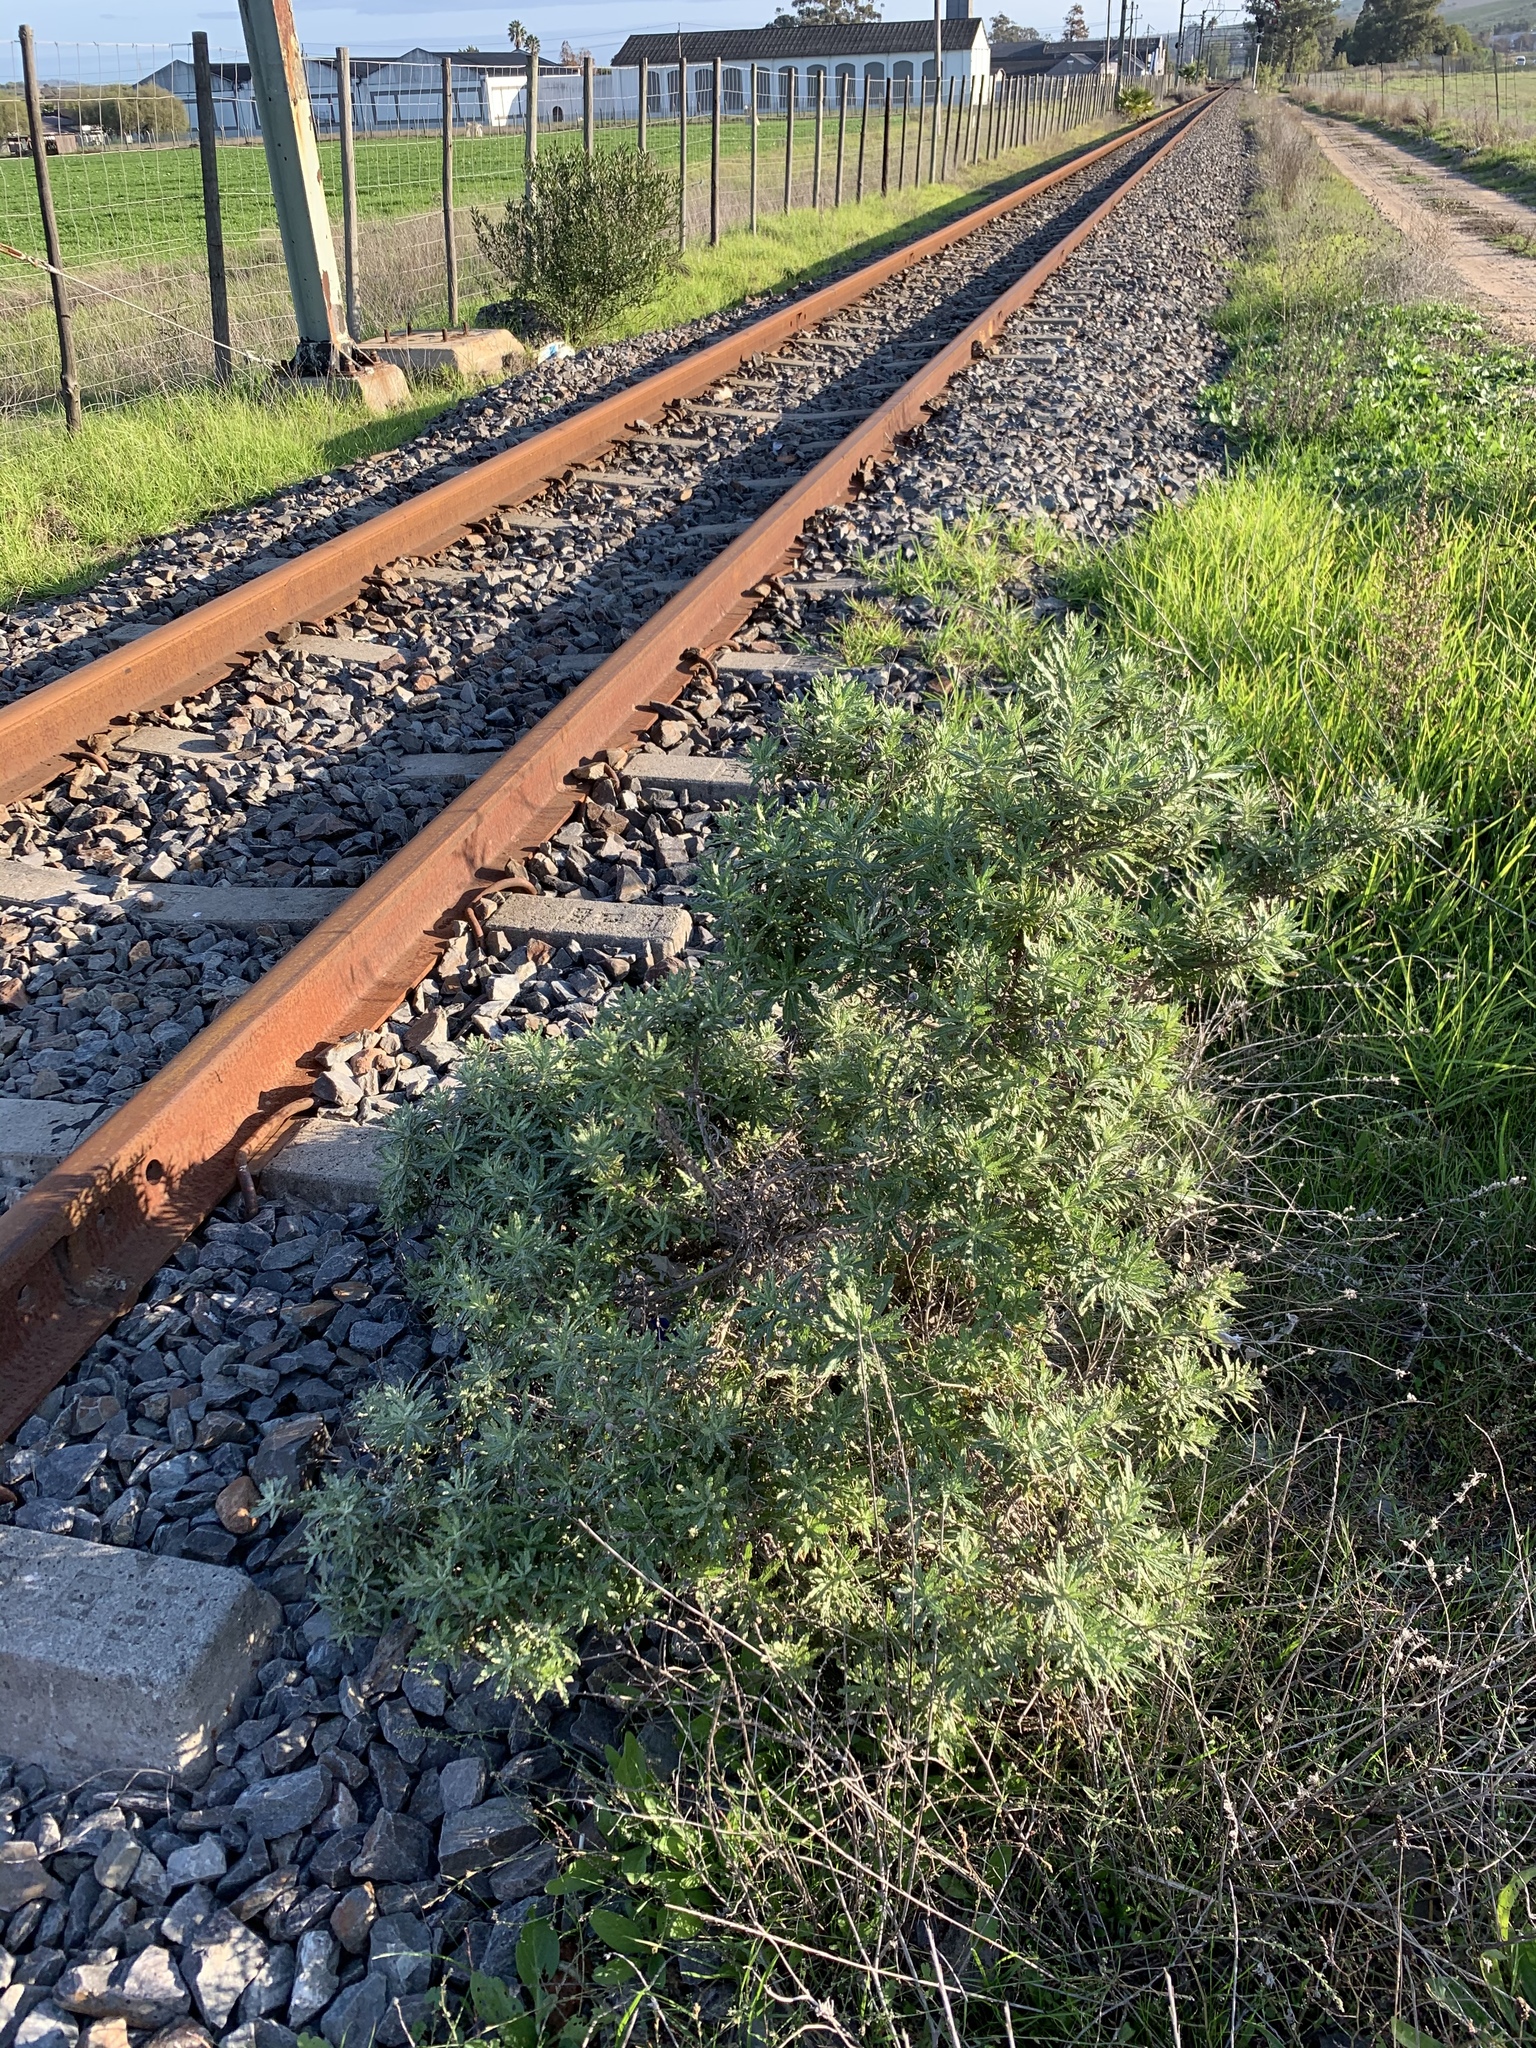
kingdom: Plantae
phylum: Tracheophyta
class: Magnoliopsida
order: Asterales
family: Asteraceae
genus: Senecio
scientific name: Senecio pterophorus
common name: Shoddy ragwort
